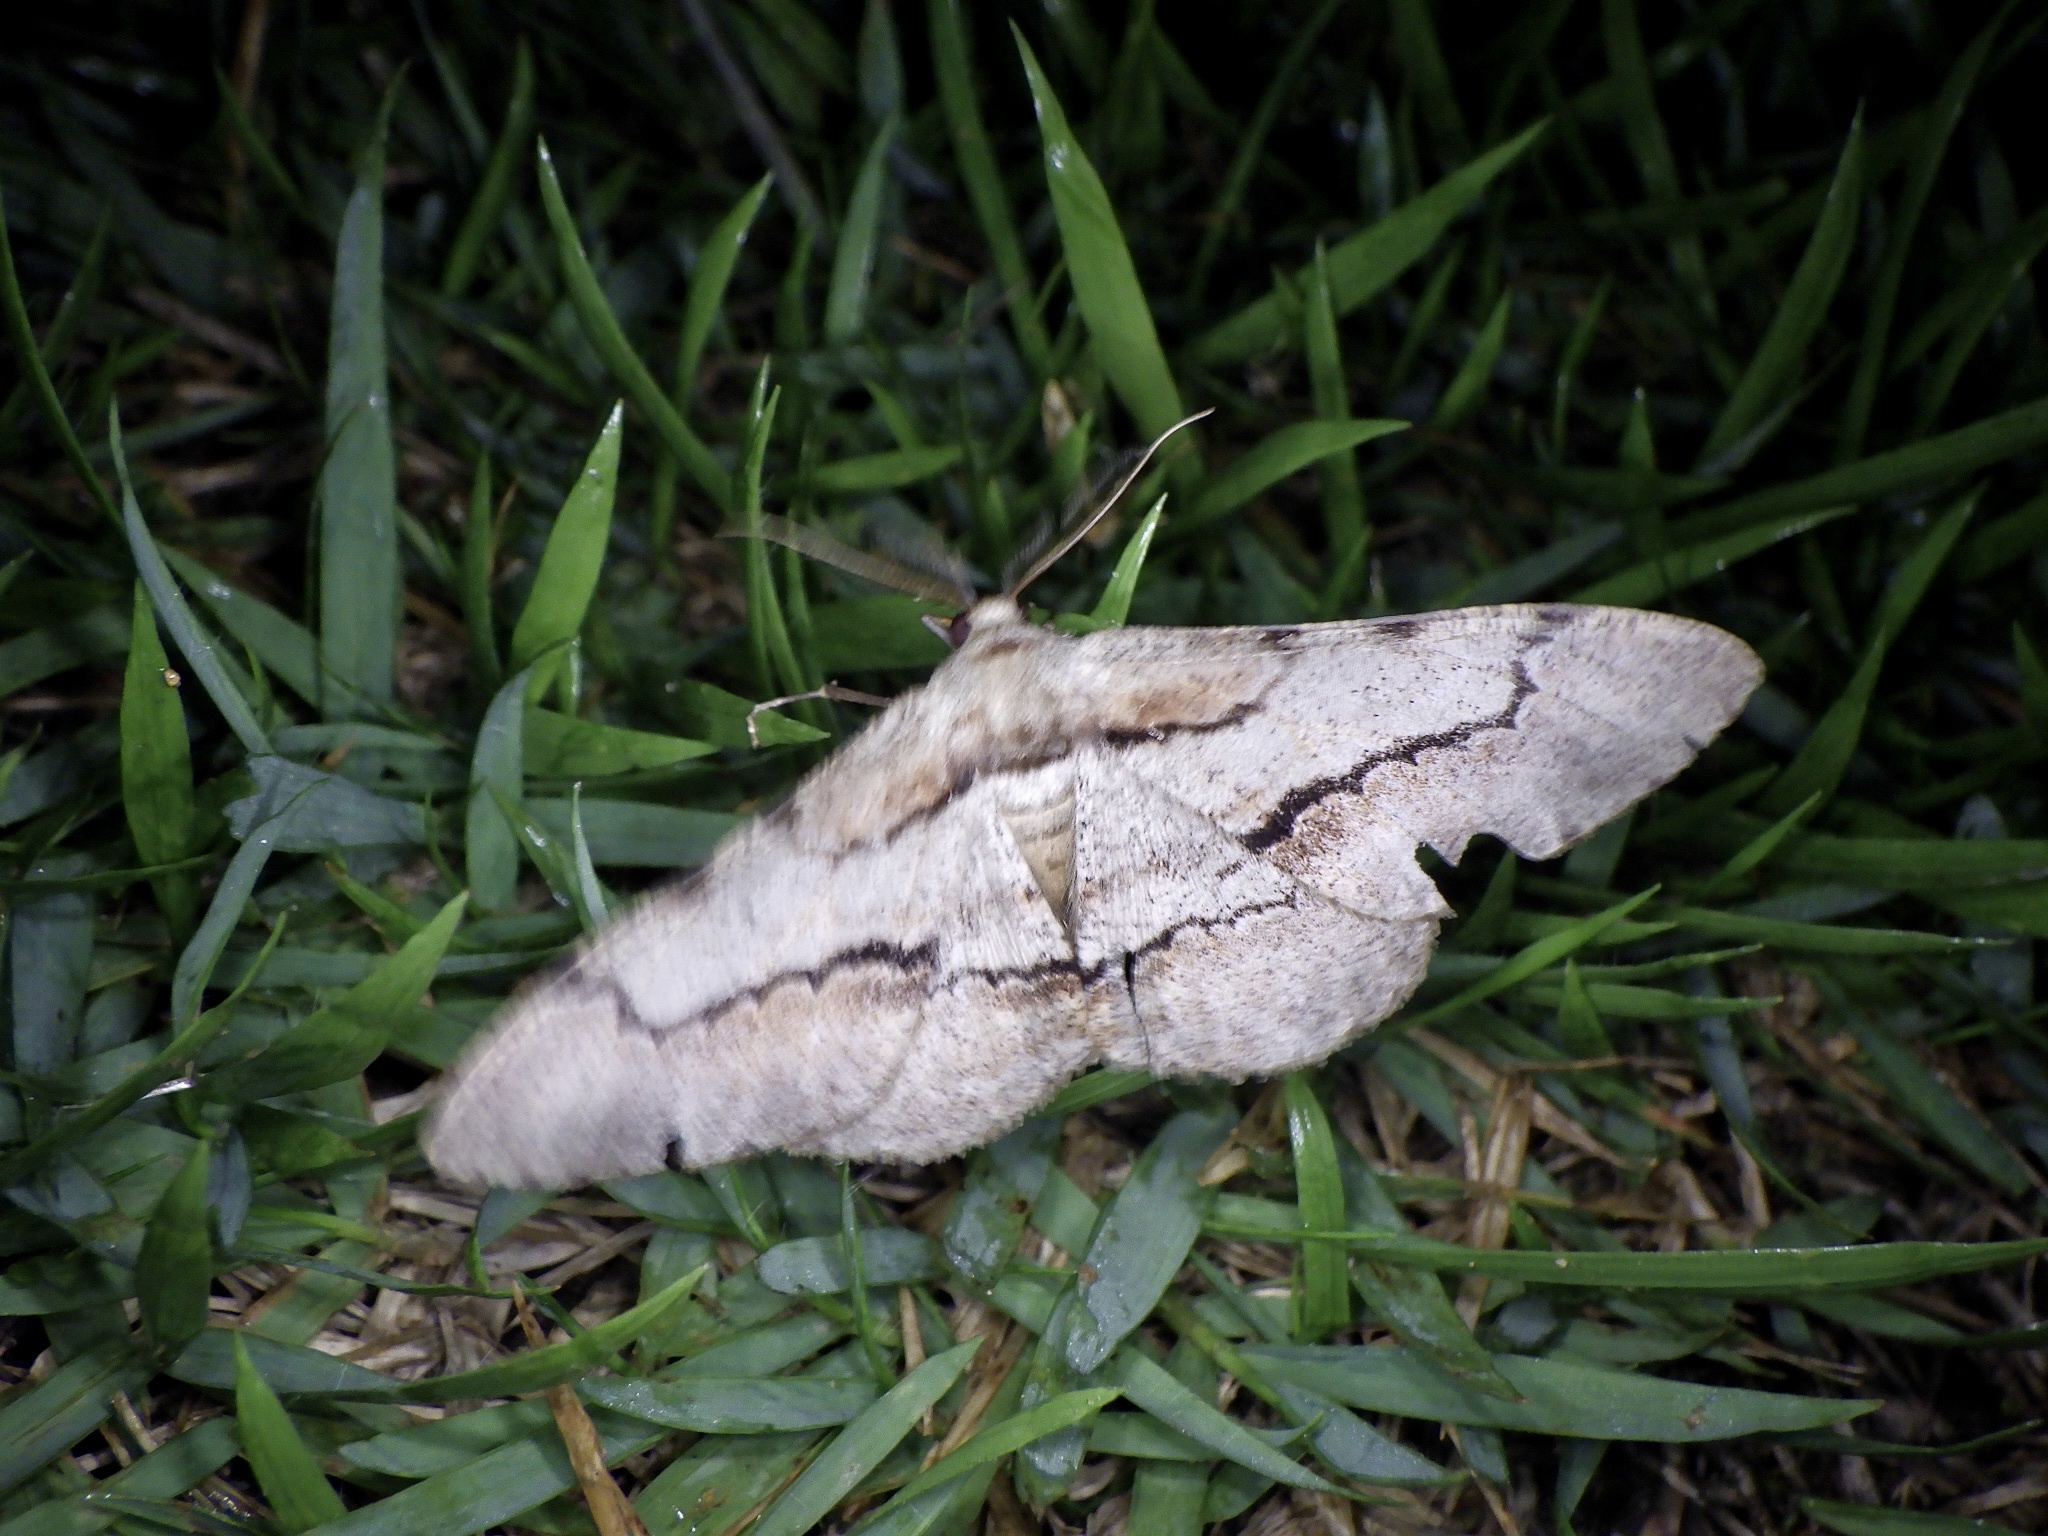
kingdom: Animalia
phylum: Arthropoda
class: Insecta
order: Lepidoptera
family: Geometridae
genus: Phthonosema
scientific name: Phthonosema tendinosaria
